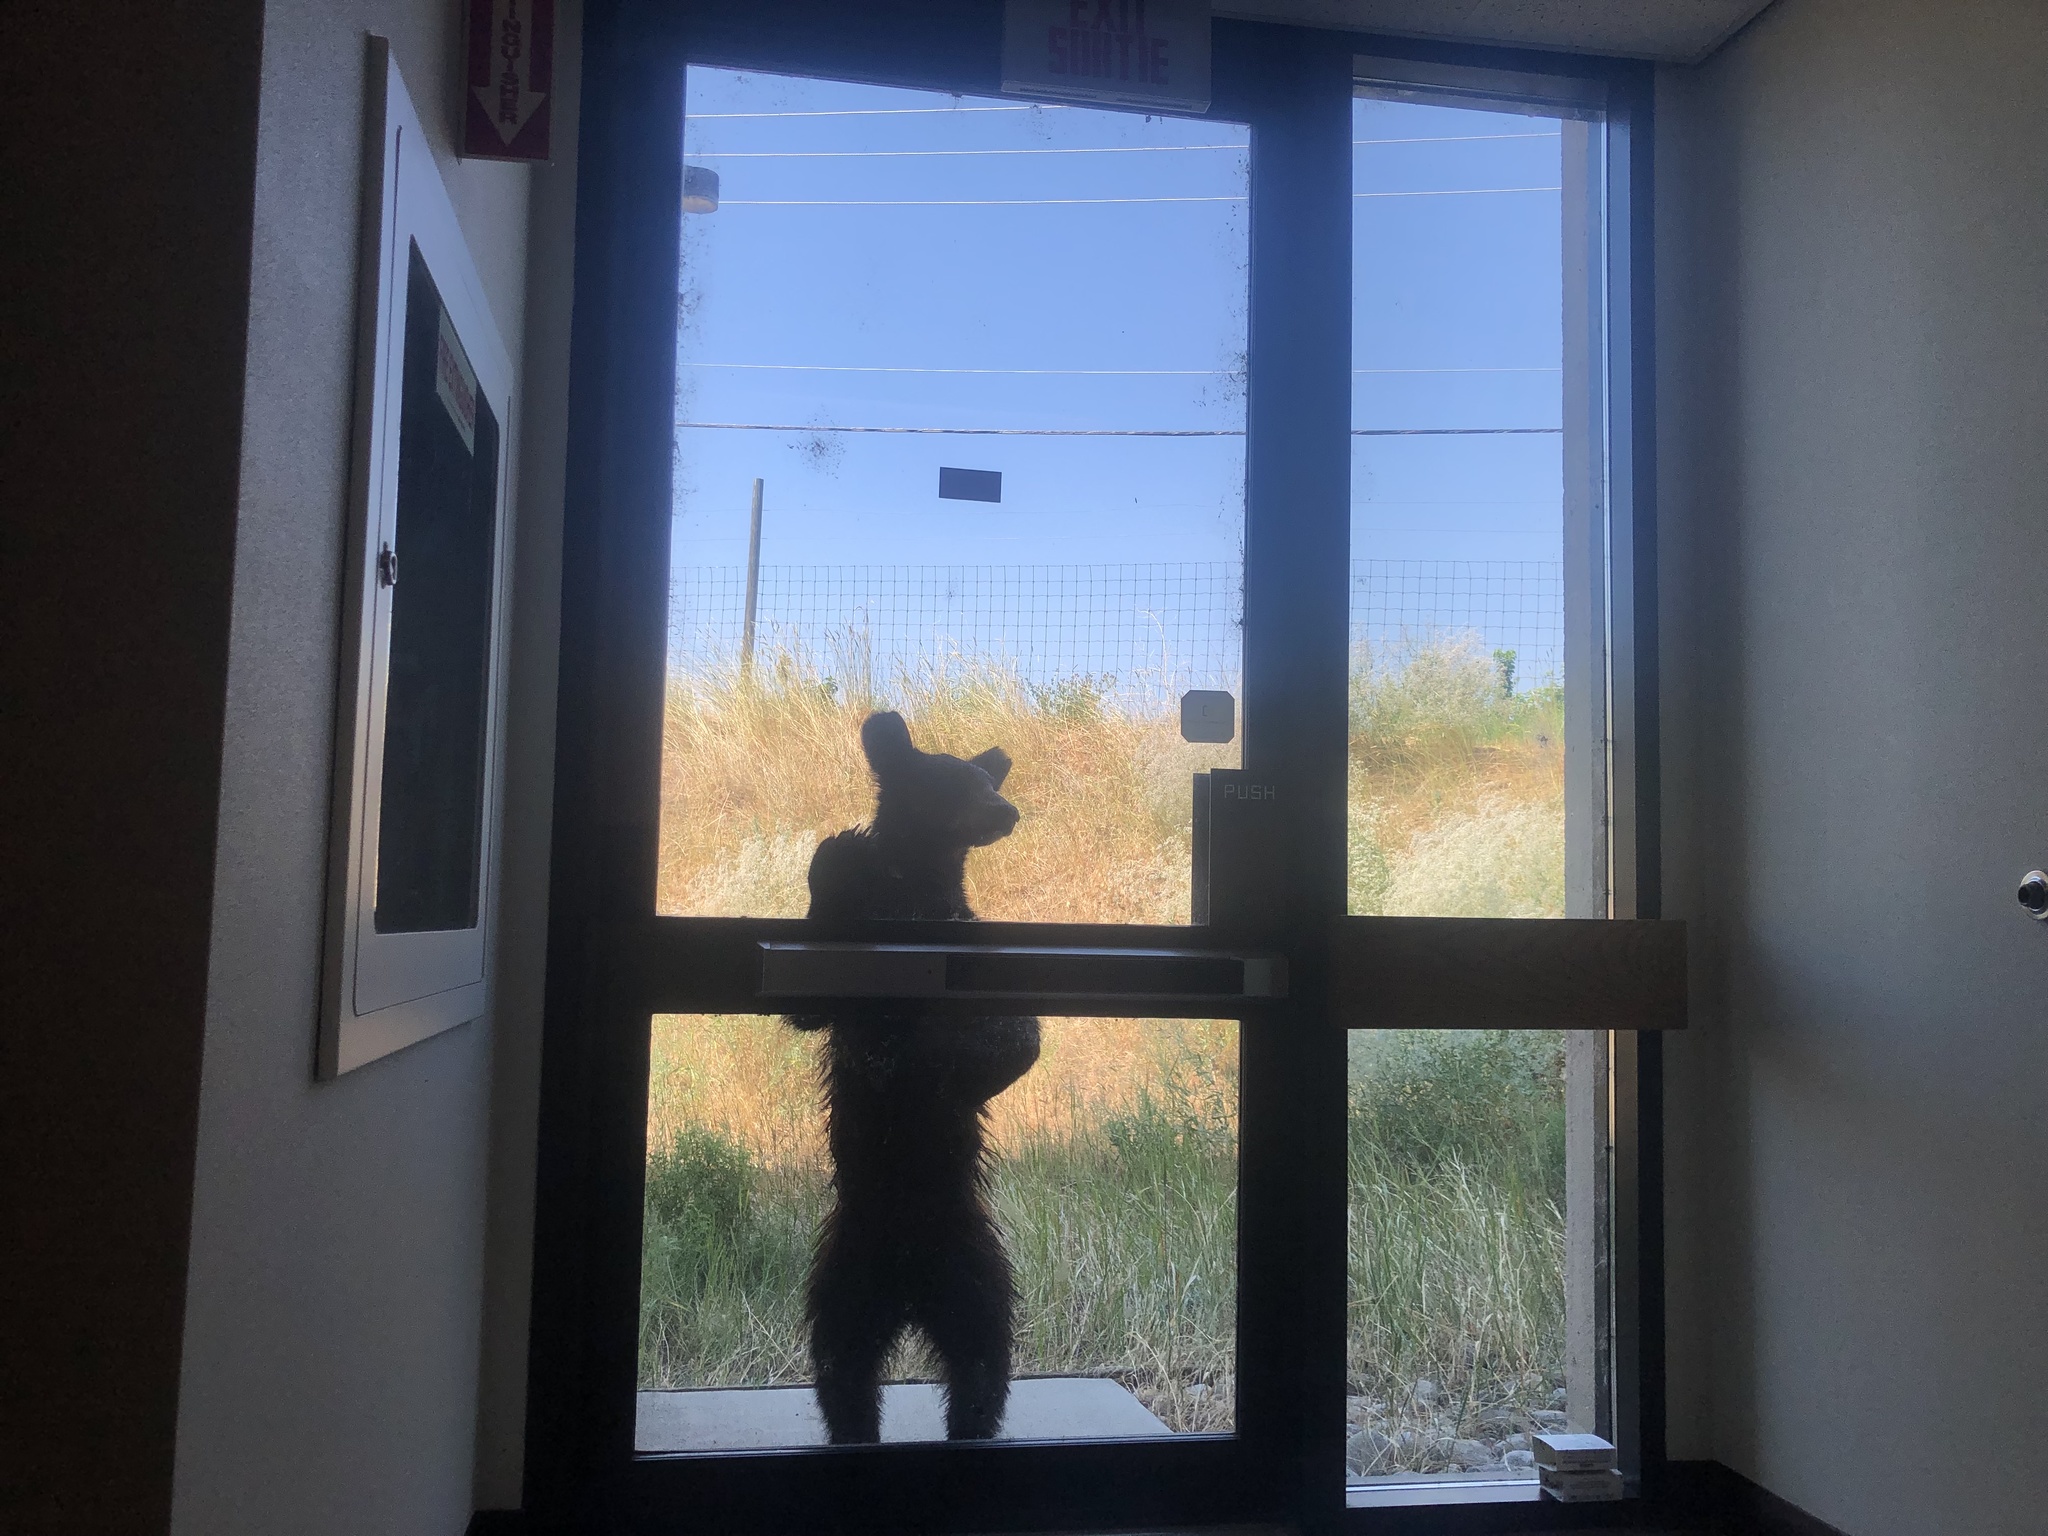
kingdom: Animalia
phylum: Chordata
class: Mammalia
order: Carnivora
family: Ursidae
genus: Ursus
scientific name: Ursus americanus
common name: American black bear
